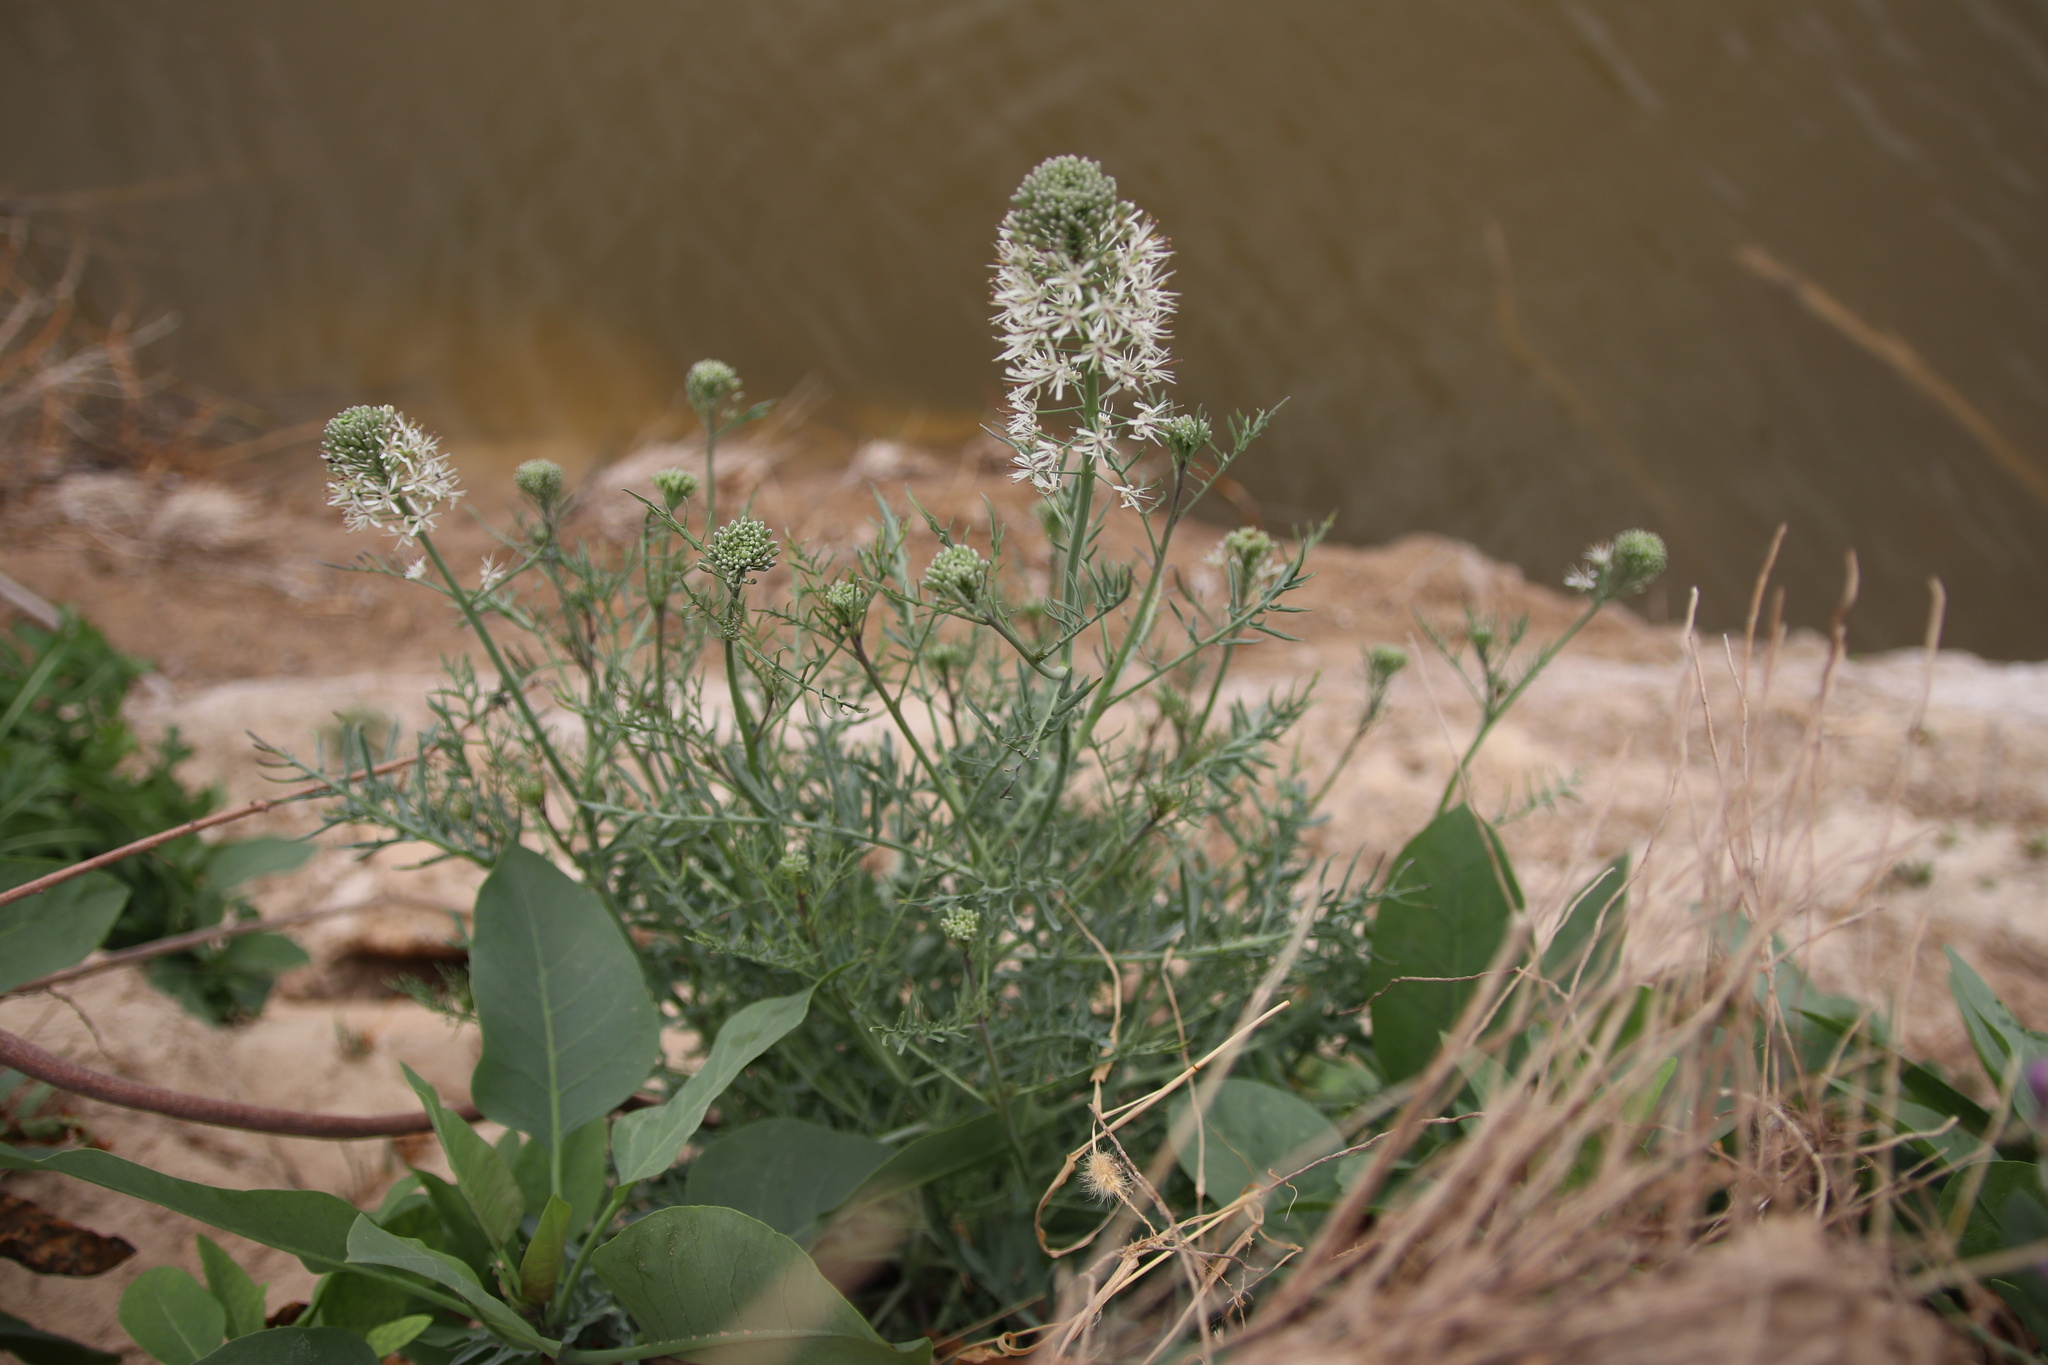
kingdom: Plantae
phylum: Tracheophyta
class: Magnoliopsida
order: Brassicales
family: Brassicaceae
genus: Thelypodium
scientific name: Thelypodium texanum
